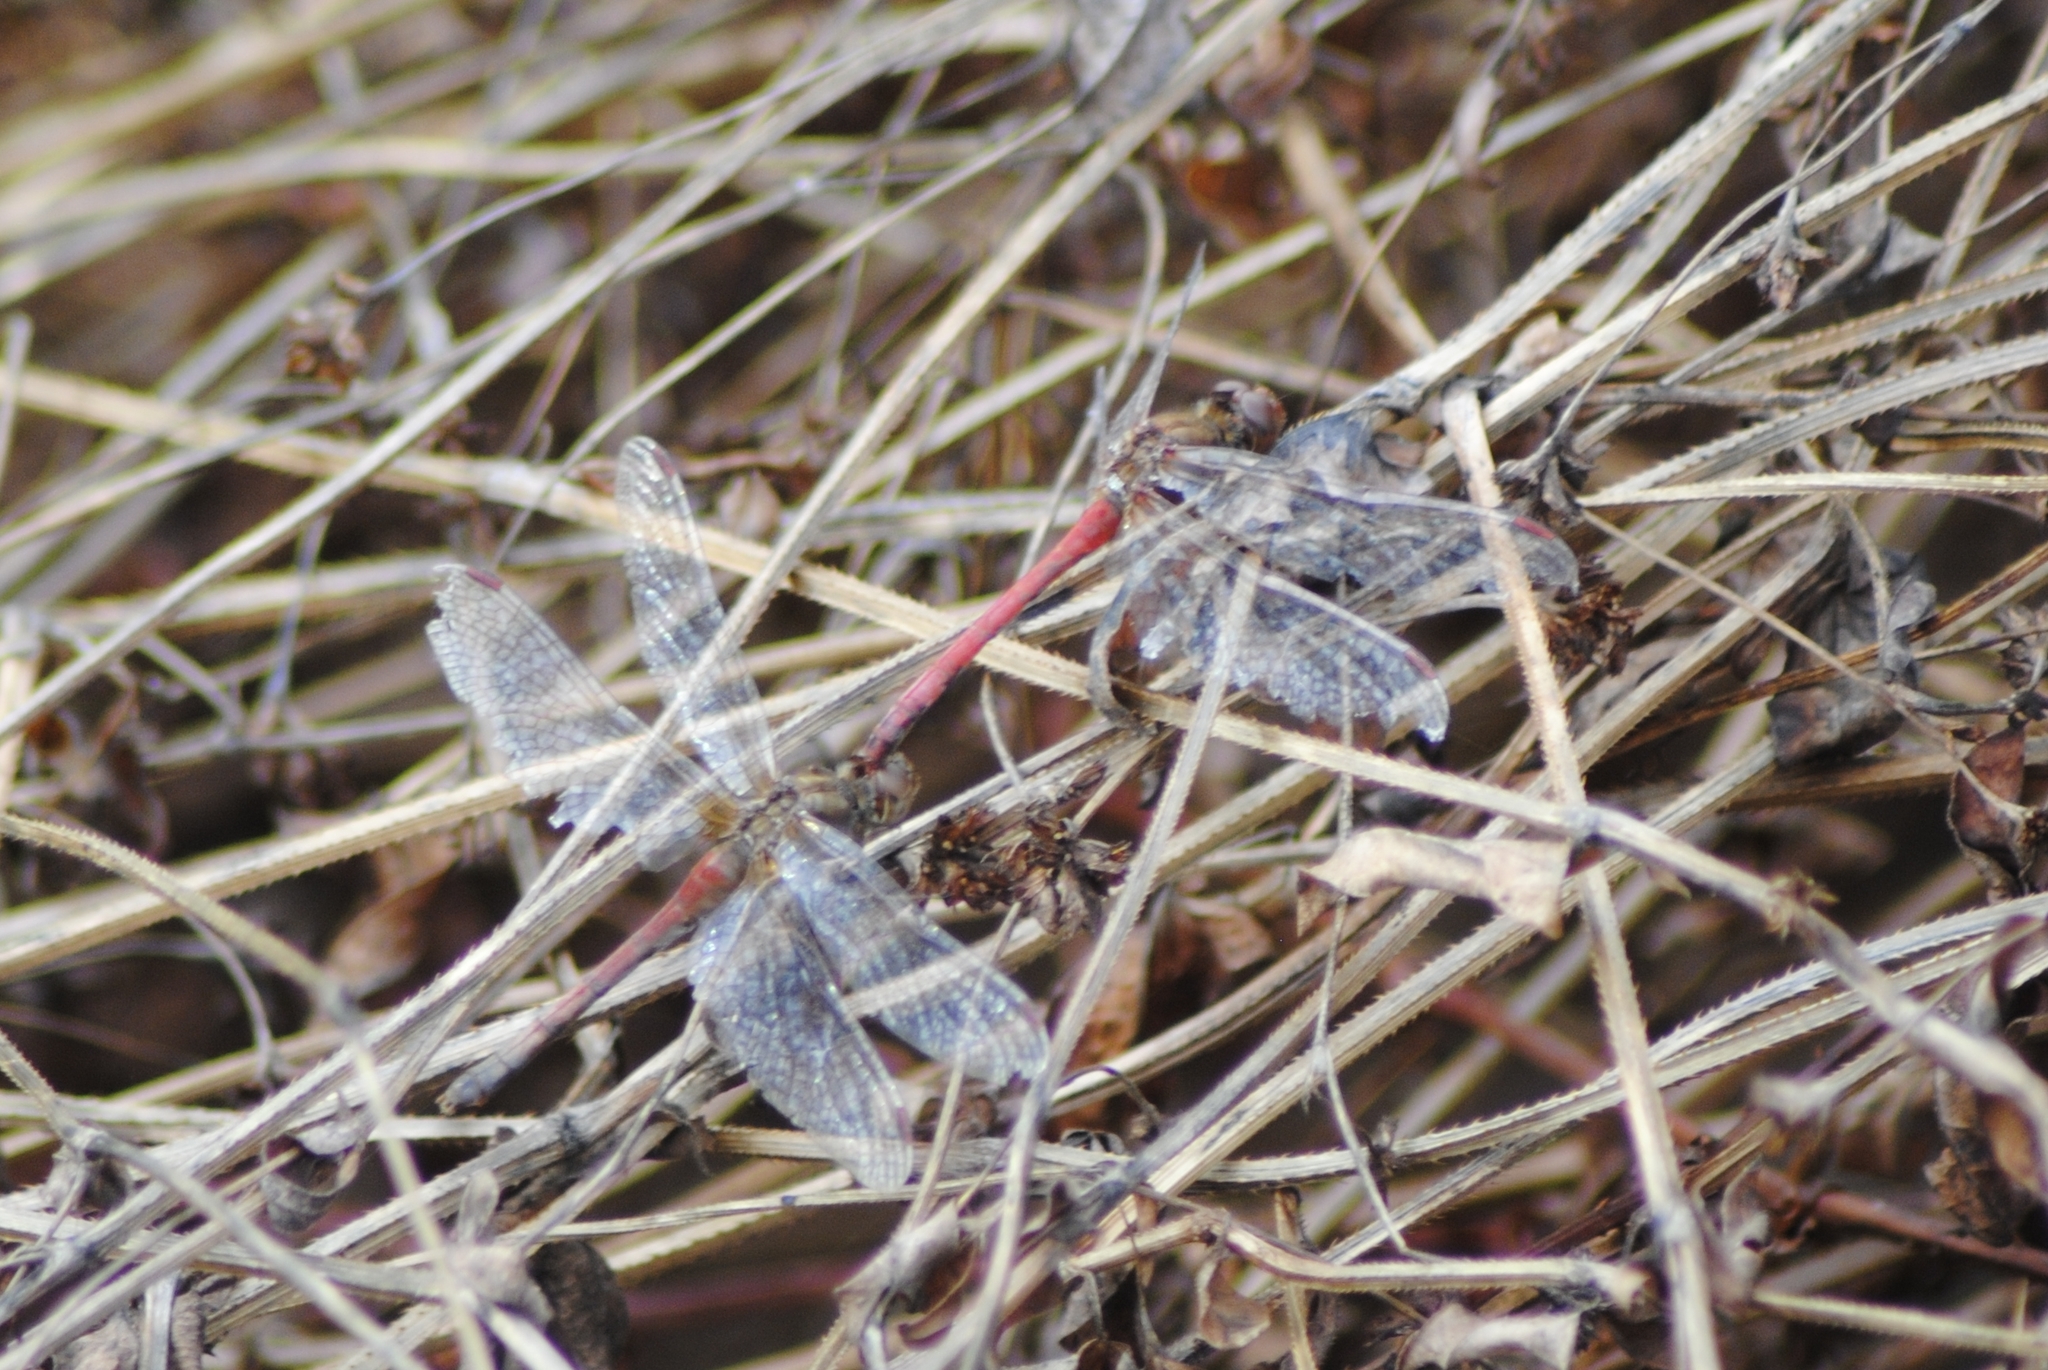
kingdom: Animalia
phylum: Arthropoda
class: Insecta
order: Odonata
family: Libellulidae
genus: Sympetrum
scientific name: Sympetrum vicinum
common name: Autumn meadowhawk
